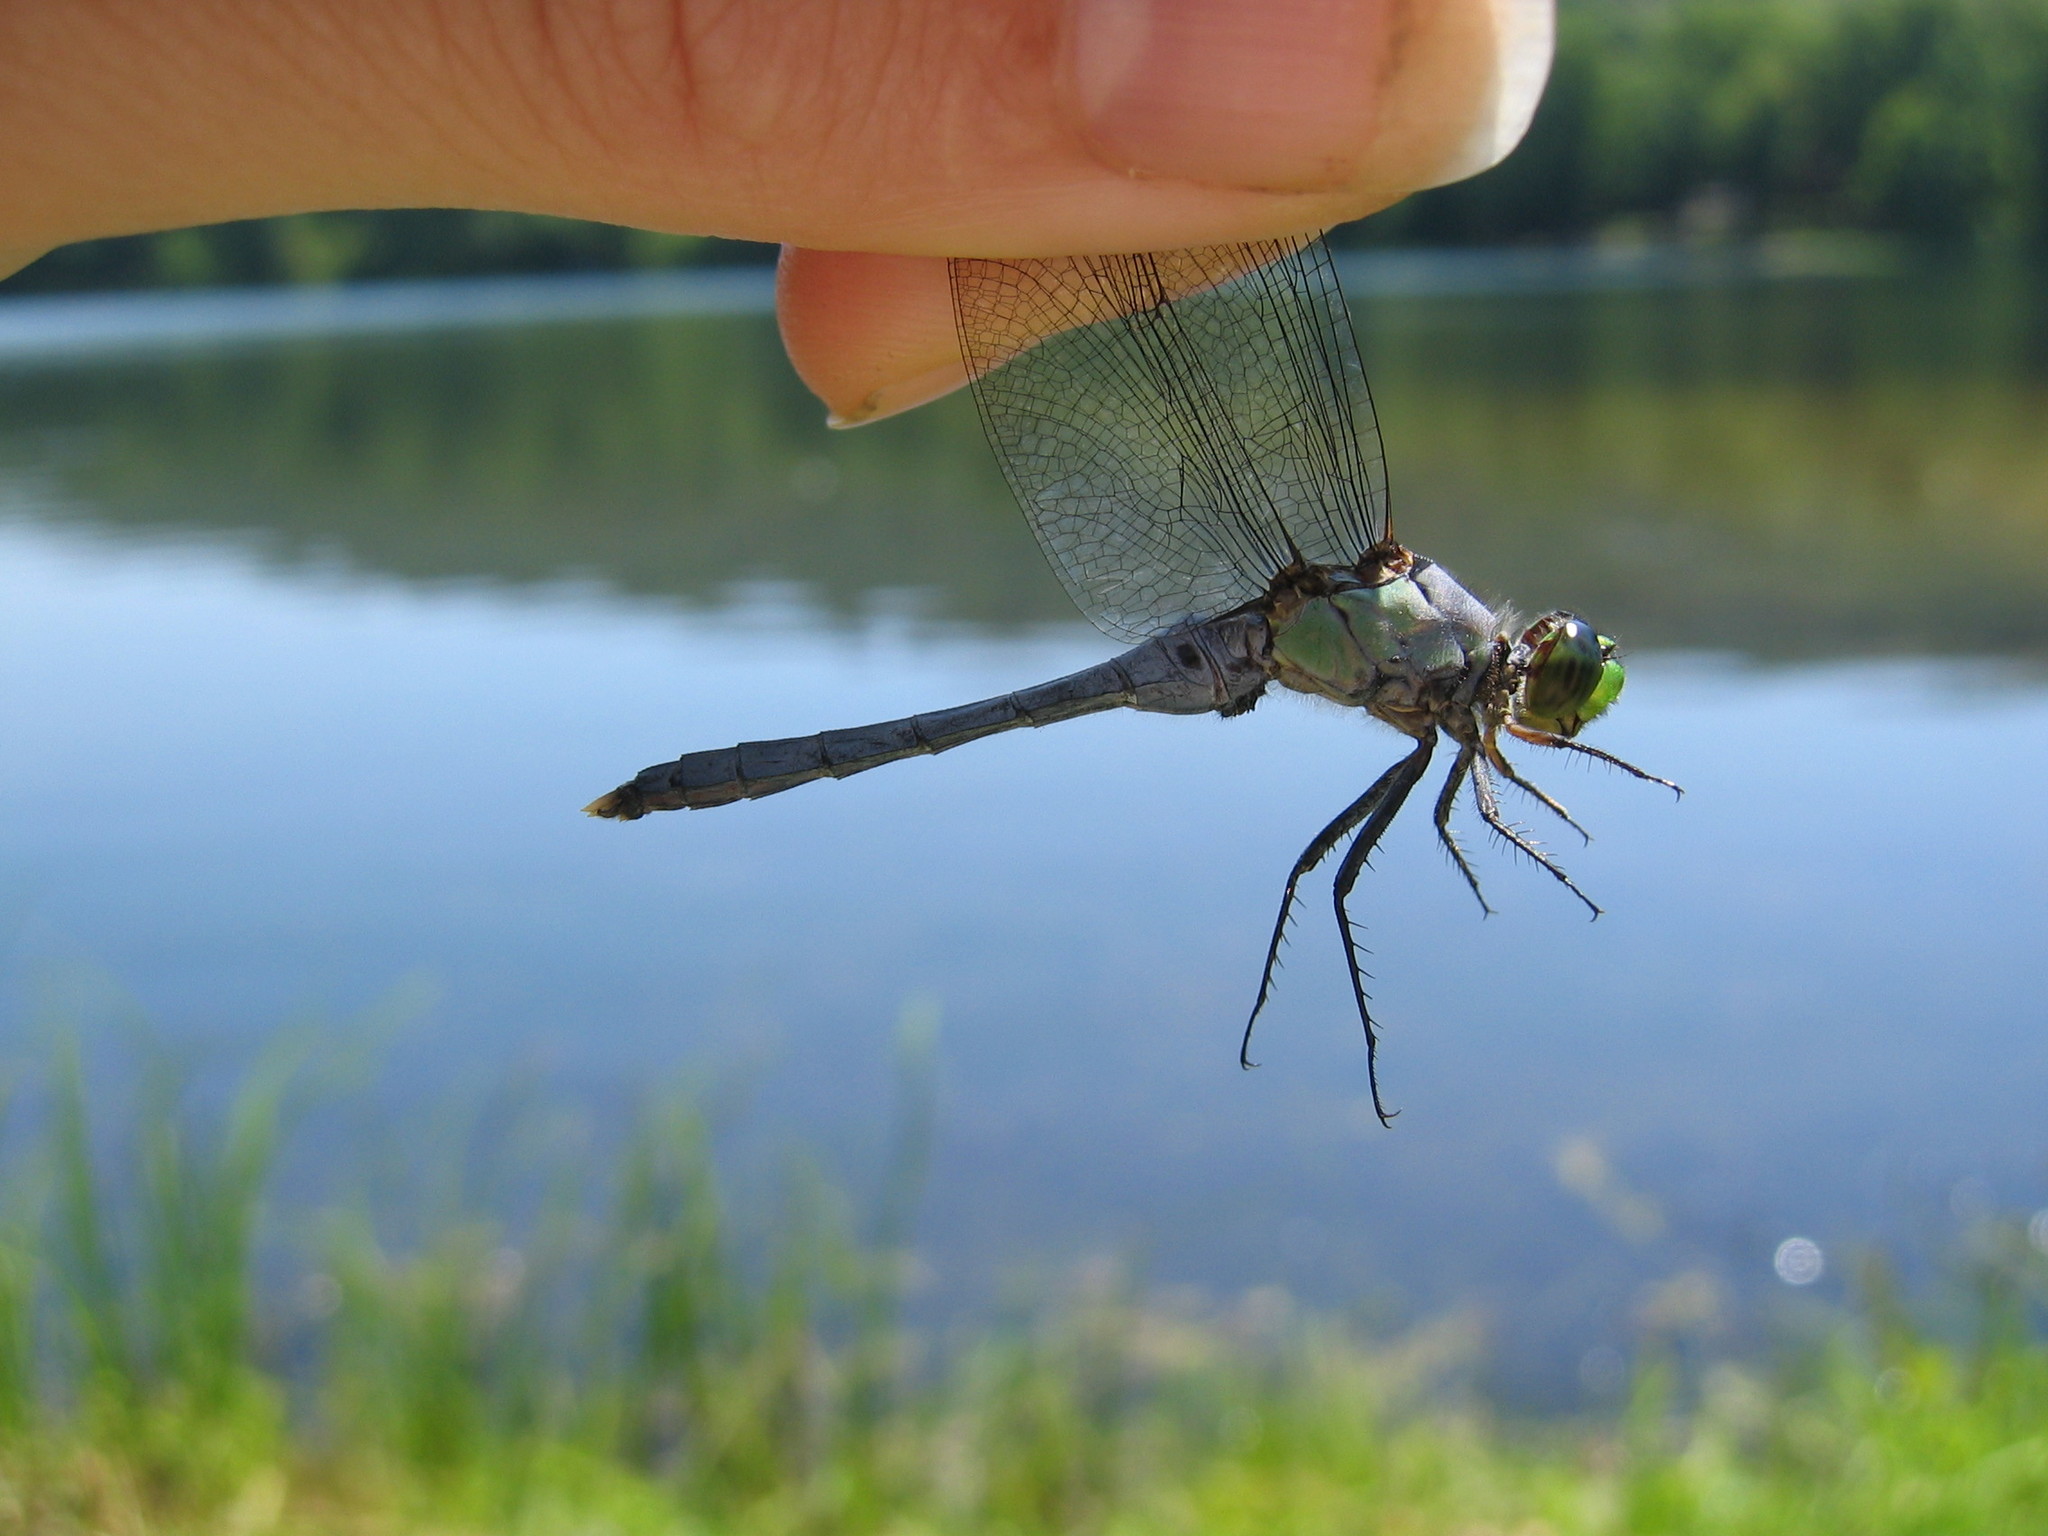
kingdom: Animalia
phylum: Arthropoda
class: Insecta
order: Odonata
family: Libellulidae
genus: Erythemis
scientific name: Erythemis simplicicollis
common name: Eastern pondhawk
